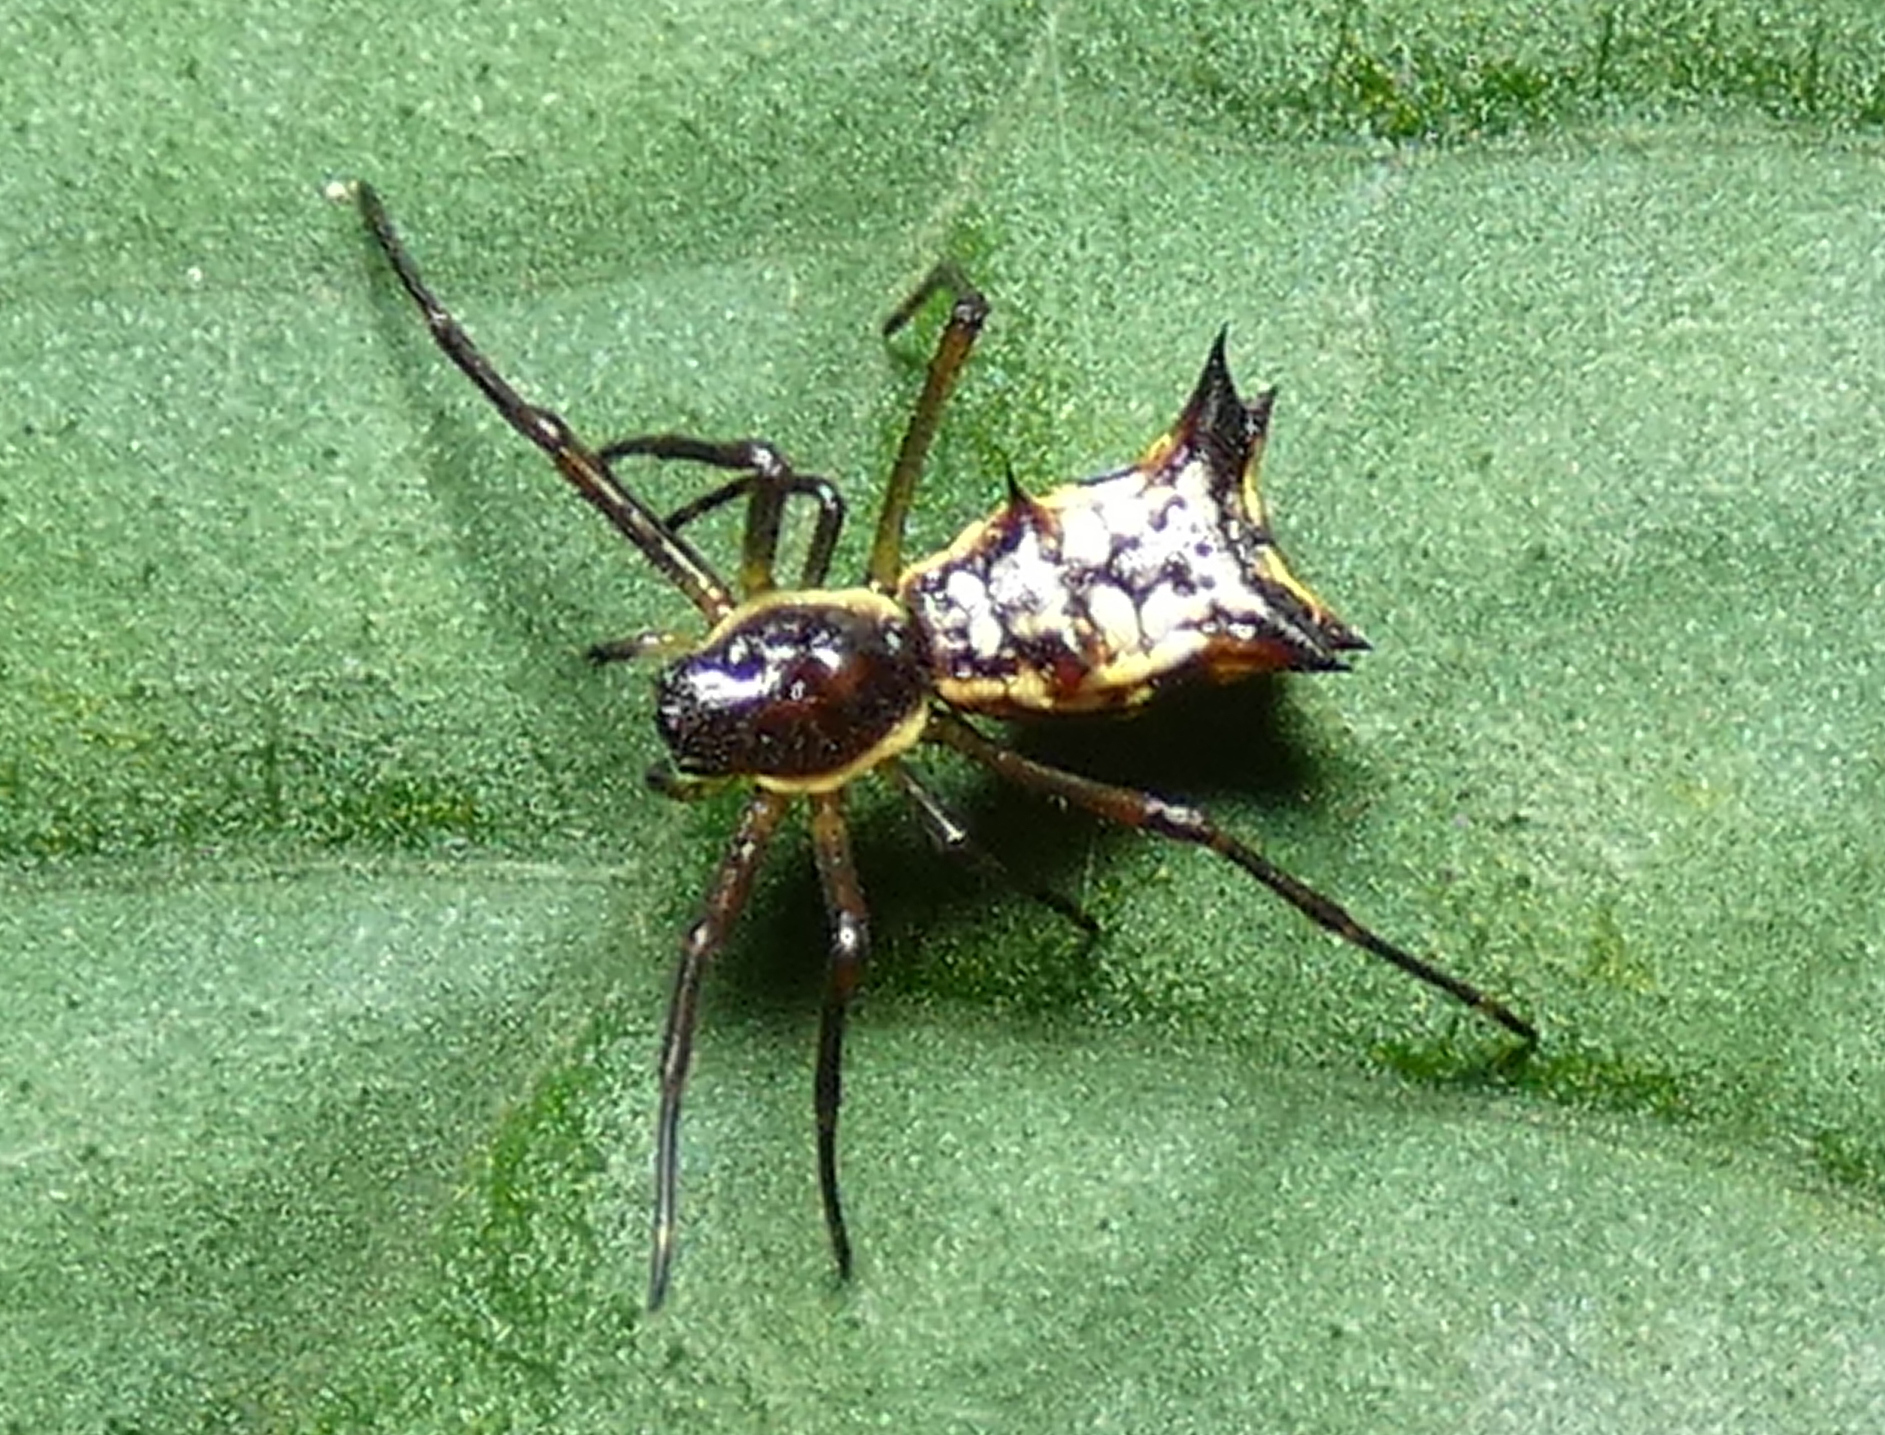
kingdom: Animalia
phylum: Arthropoda
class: Arachnida
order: Araneae
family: Araneidae
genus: Micrathena
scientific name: Micrathena fissispina
